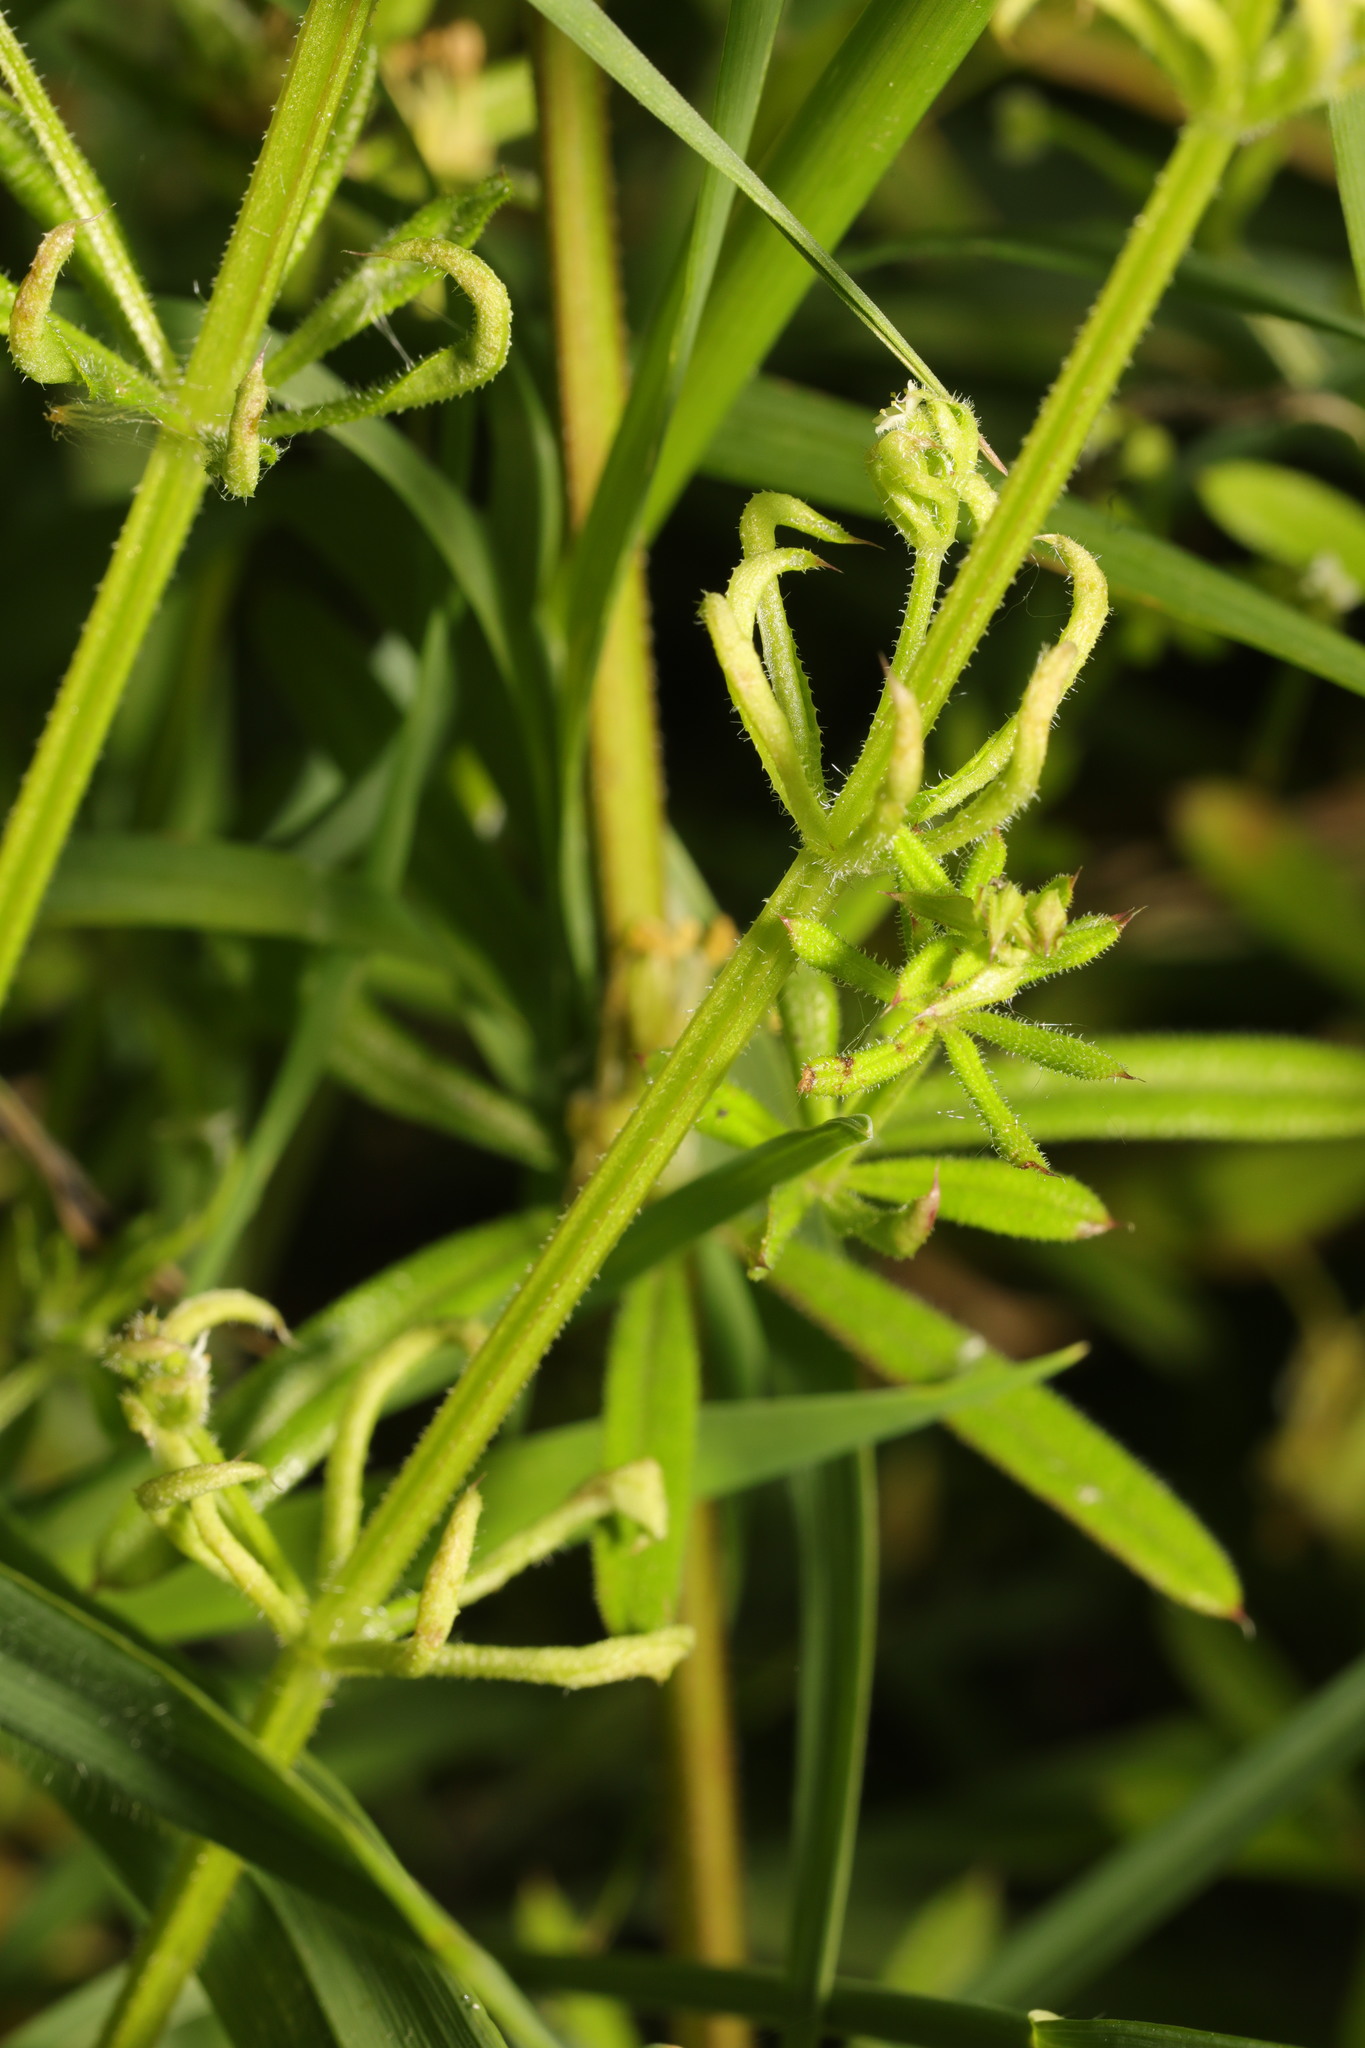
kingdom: Animalia
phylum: Arthropoda
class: Arachnida
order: Trombidiformes
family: Eriophyidae
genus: Cecidophyes
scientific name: Cecidophyes rouhollahi
